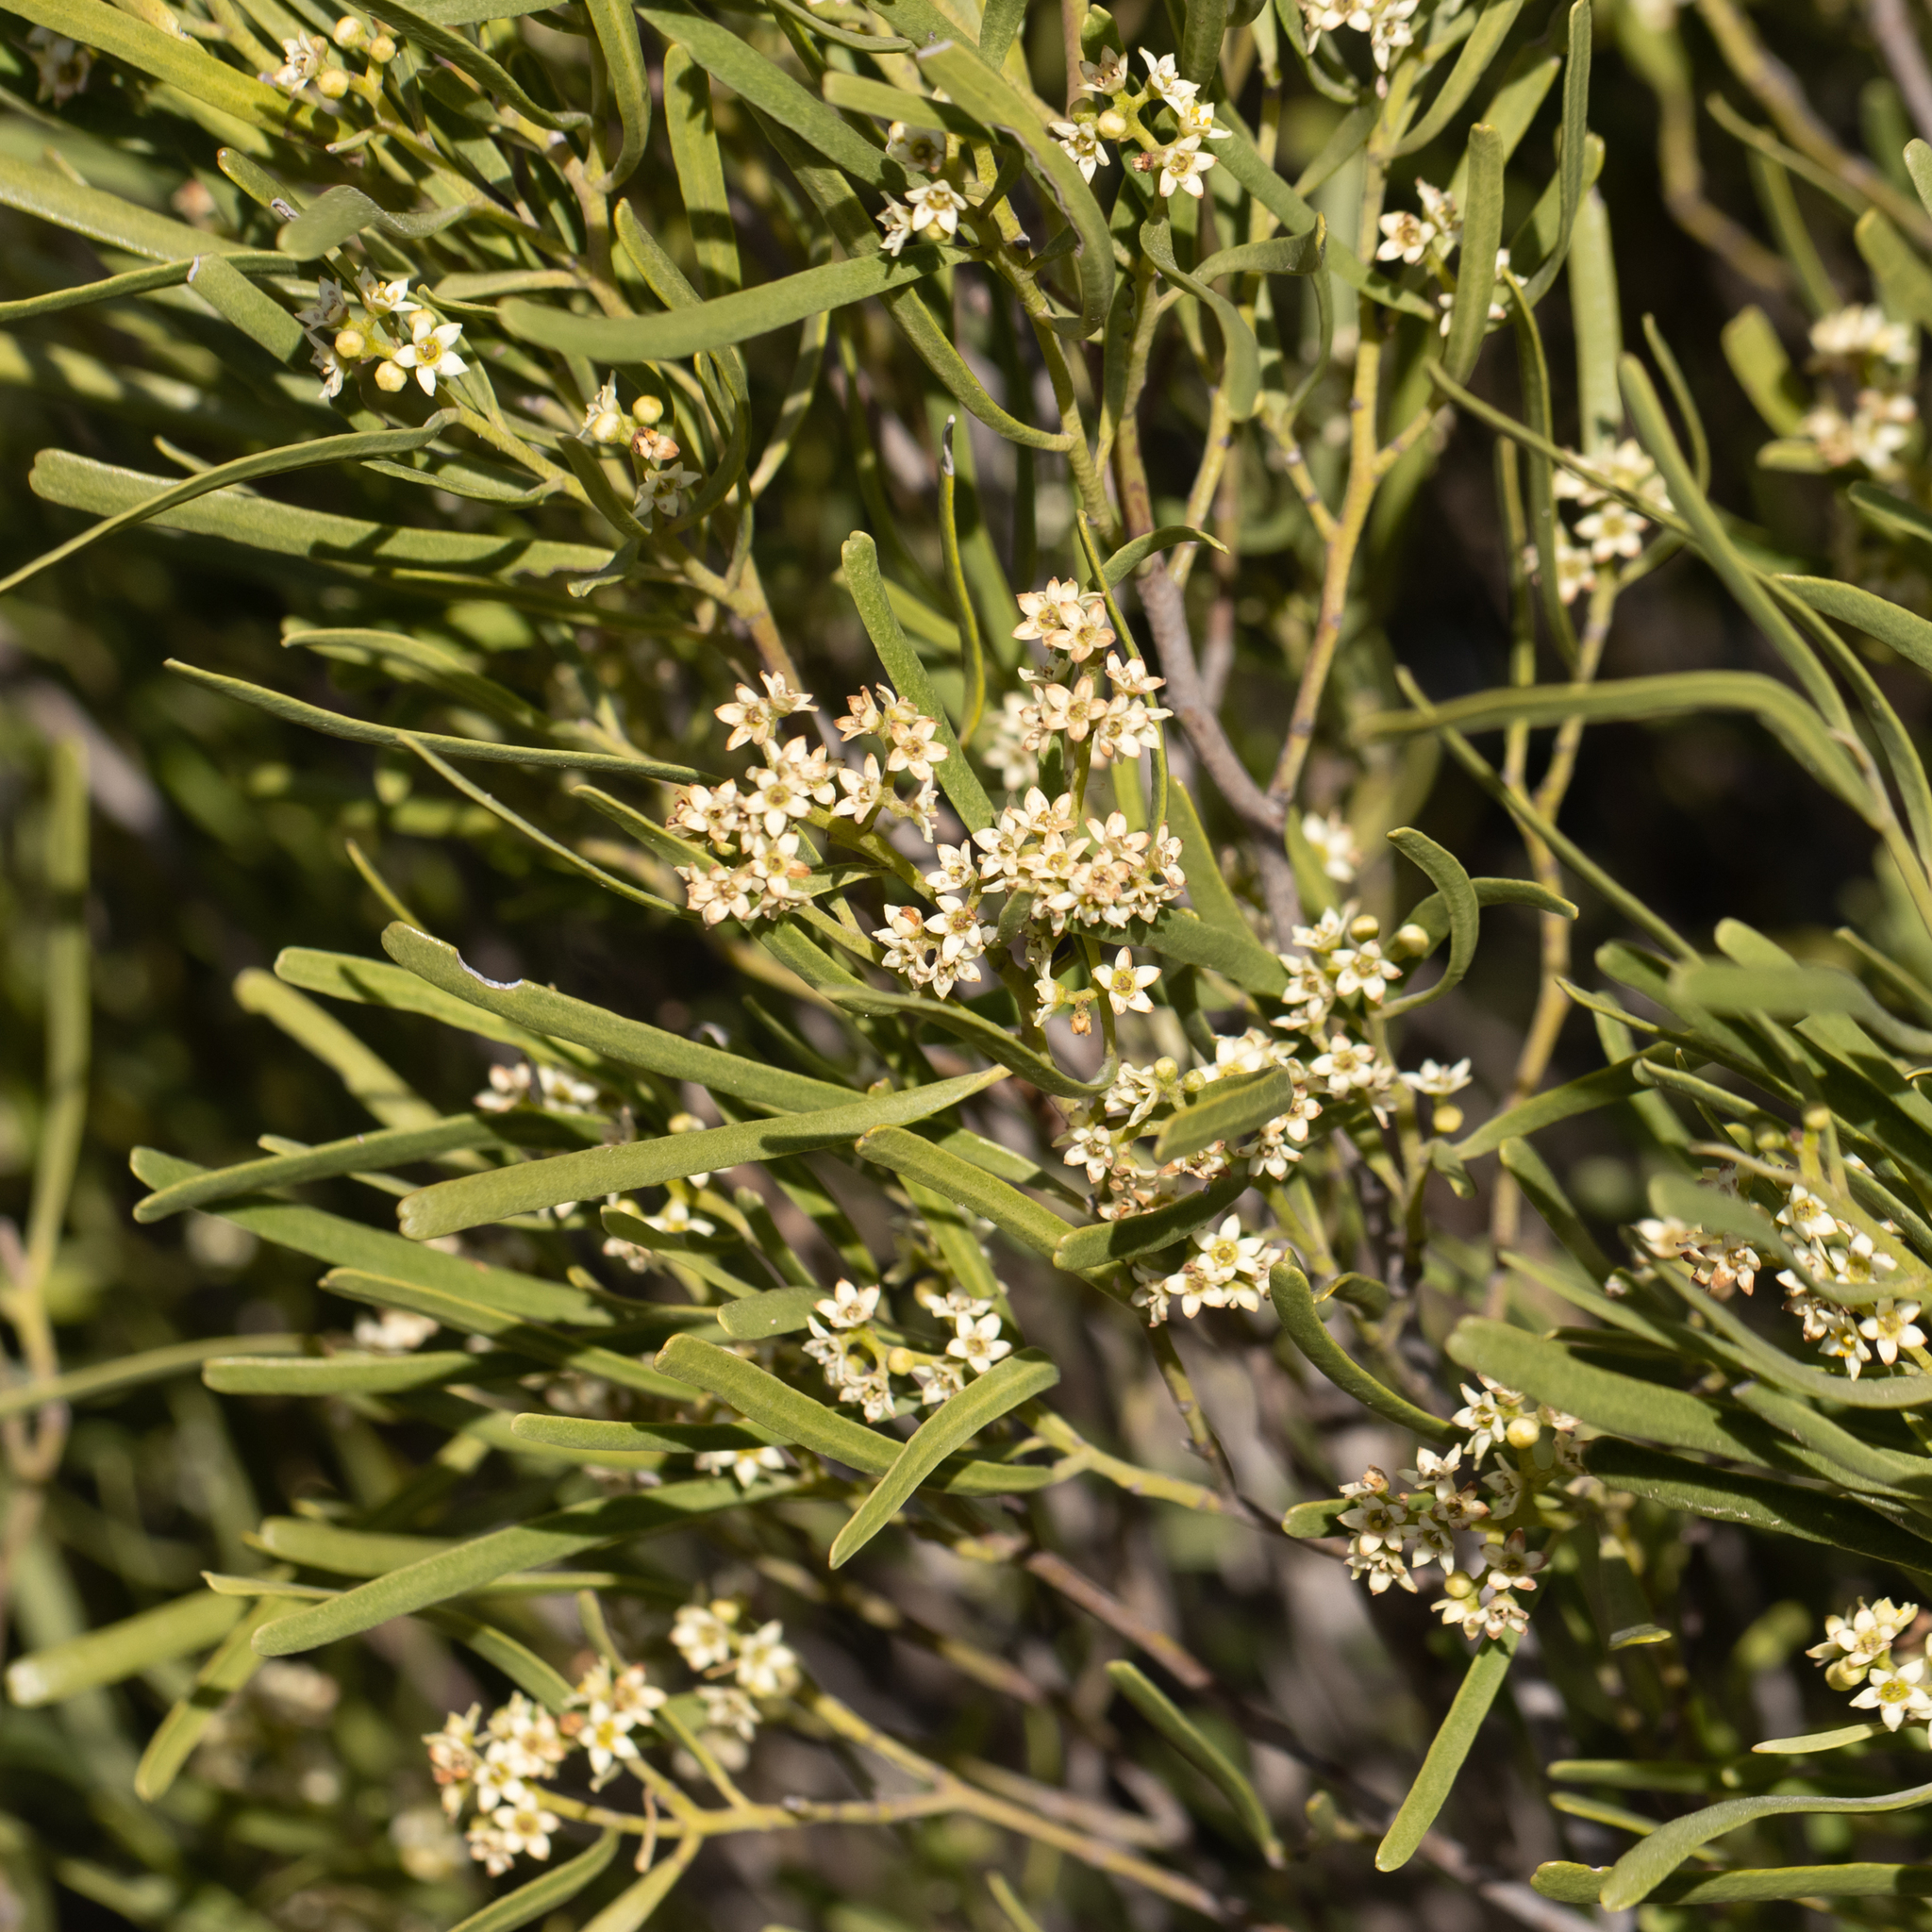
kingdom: Plantae
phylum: Tracheophyta
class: Magnoliopsida
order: Sapindales
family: Rutaceae
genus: Geijera
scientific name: Geijera linearifolia
